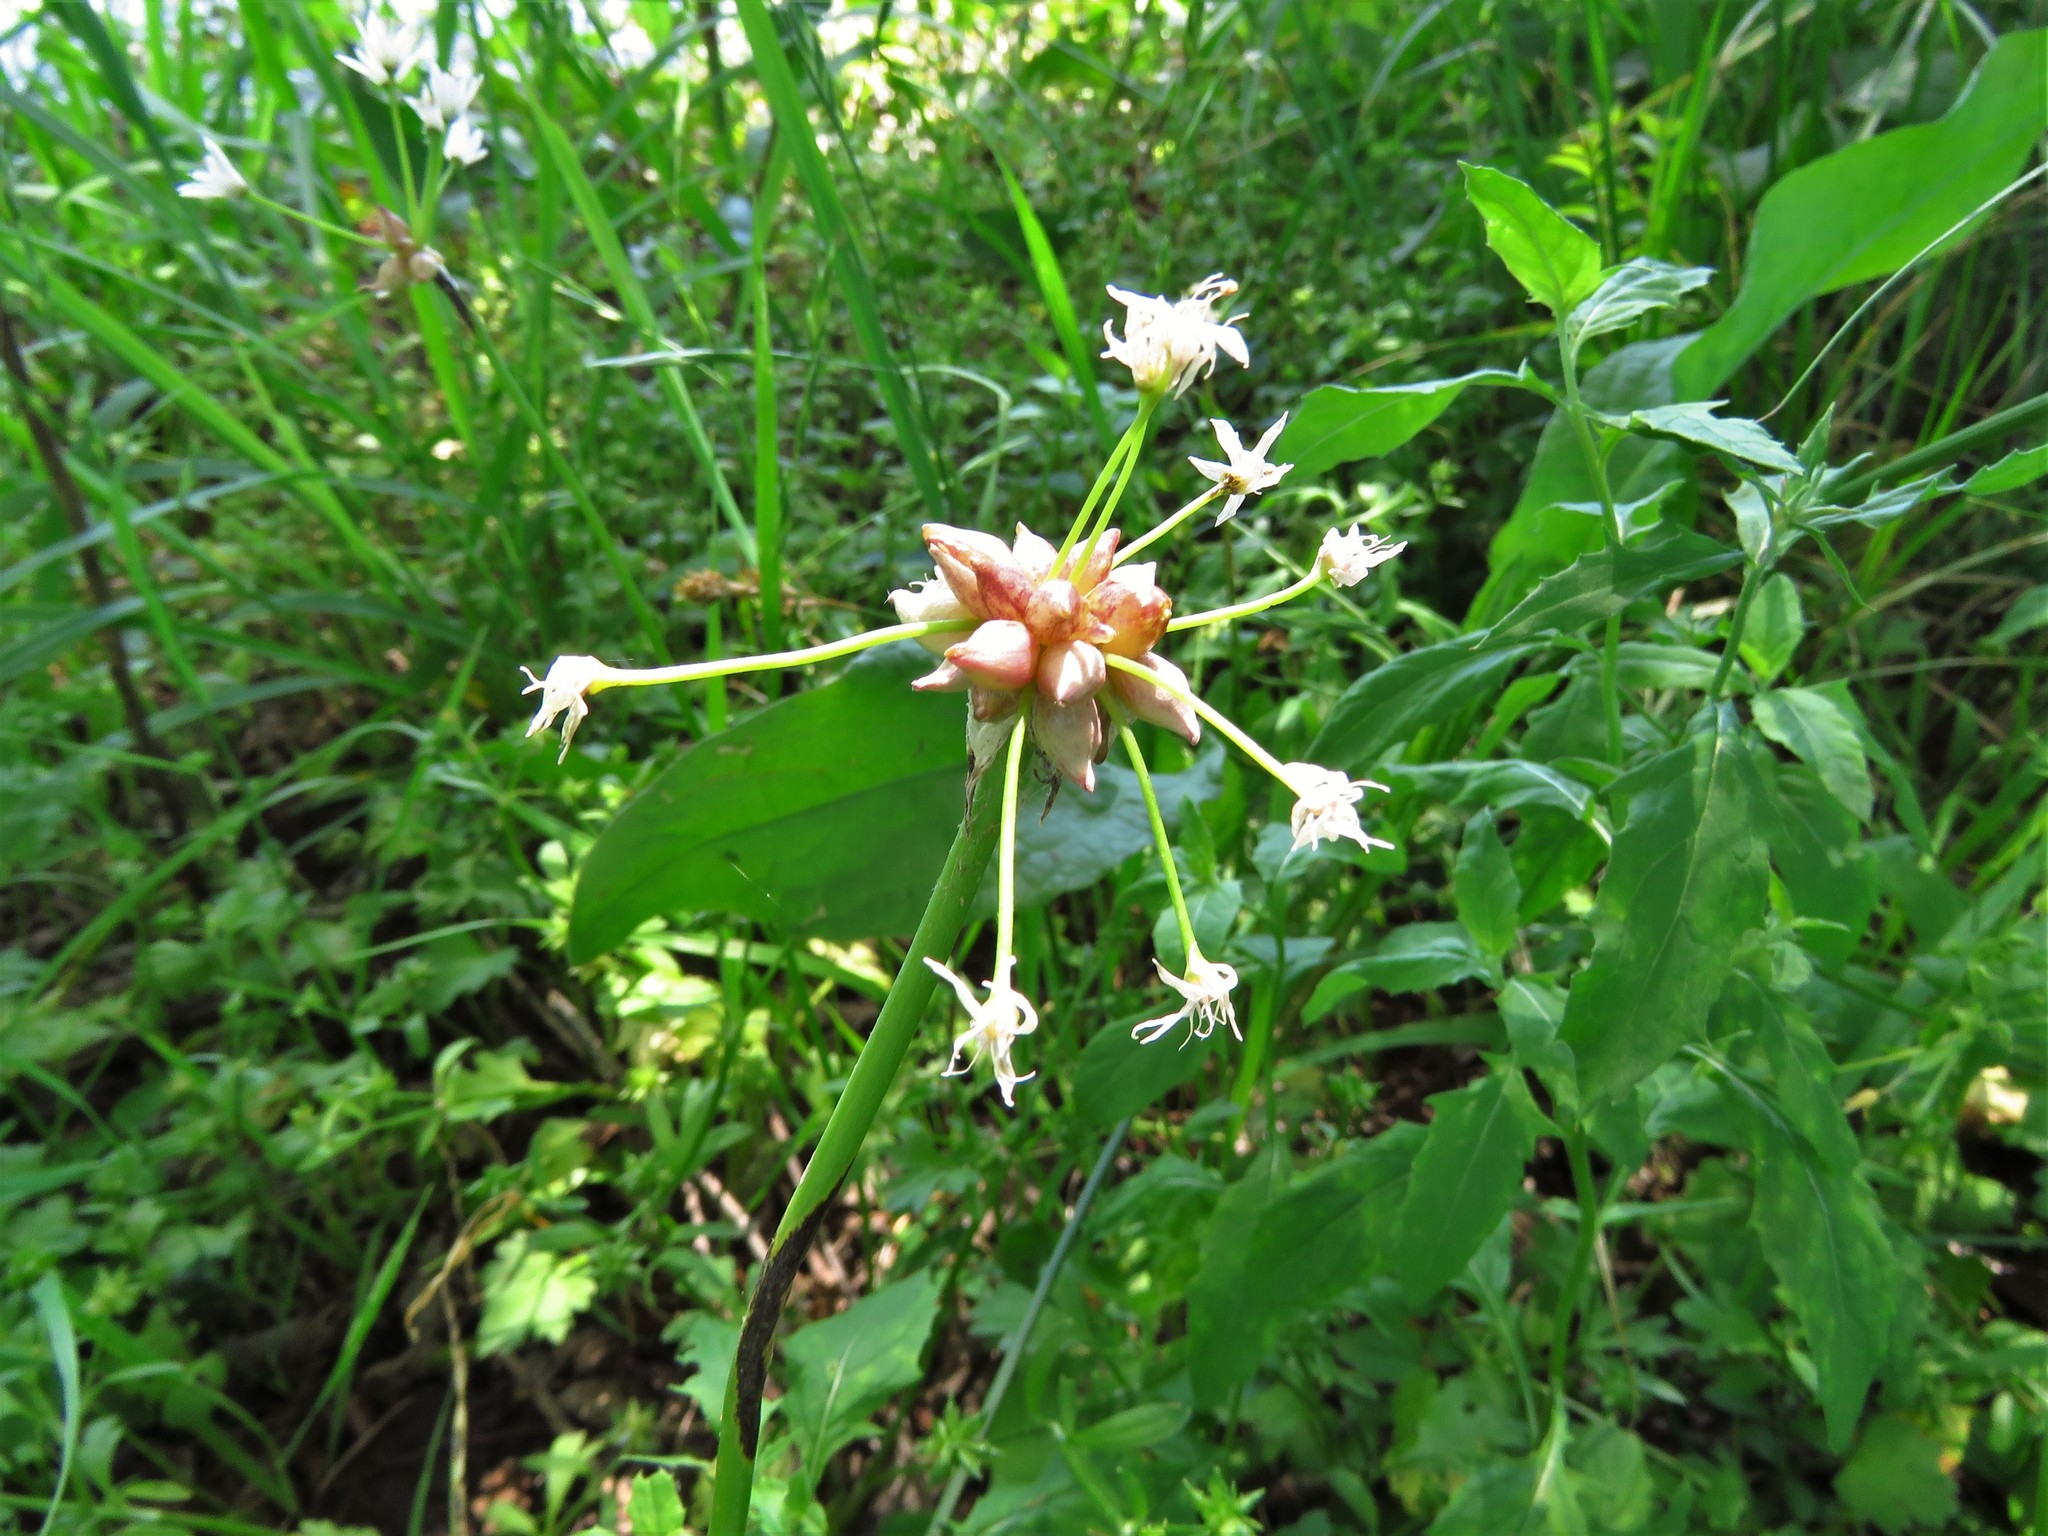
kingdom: Plantae
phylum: Tracheophyta
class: Liliopsida
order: Asparagales
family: Amaryllidaceae
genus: Allium
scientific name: Allium canadense
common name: Meadow garlic
